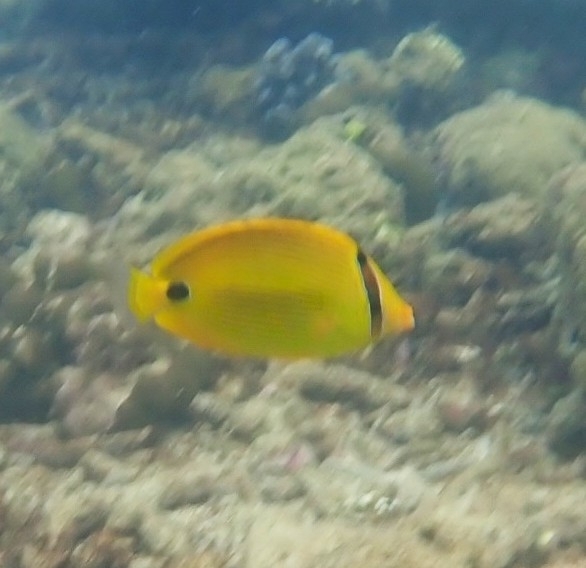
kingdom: Animalia
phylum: Chordata
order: Perciformes
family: Chaetodontidae
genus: Chaetodon
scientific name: Chaetodon andamanensis
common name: Yellow butterflyfish
